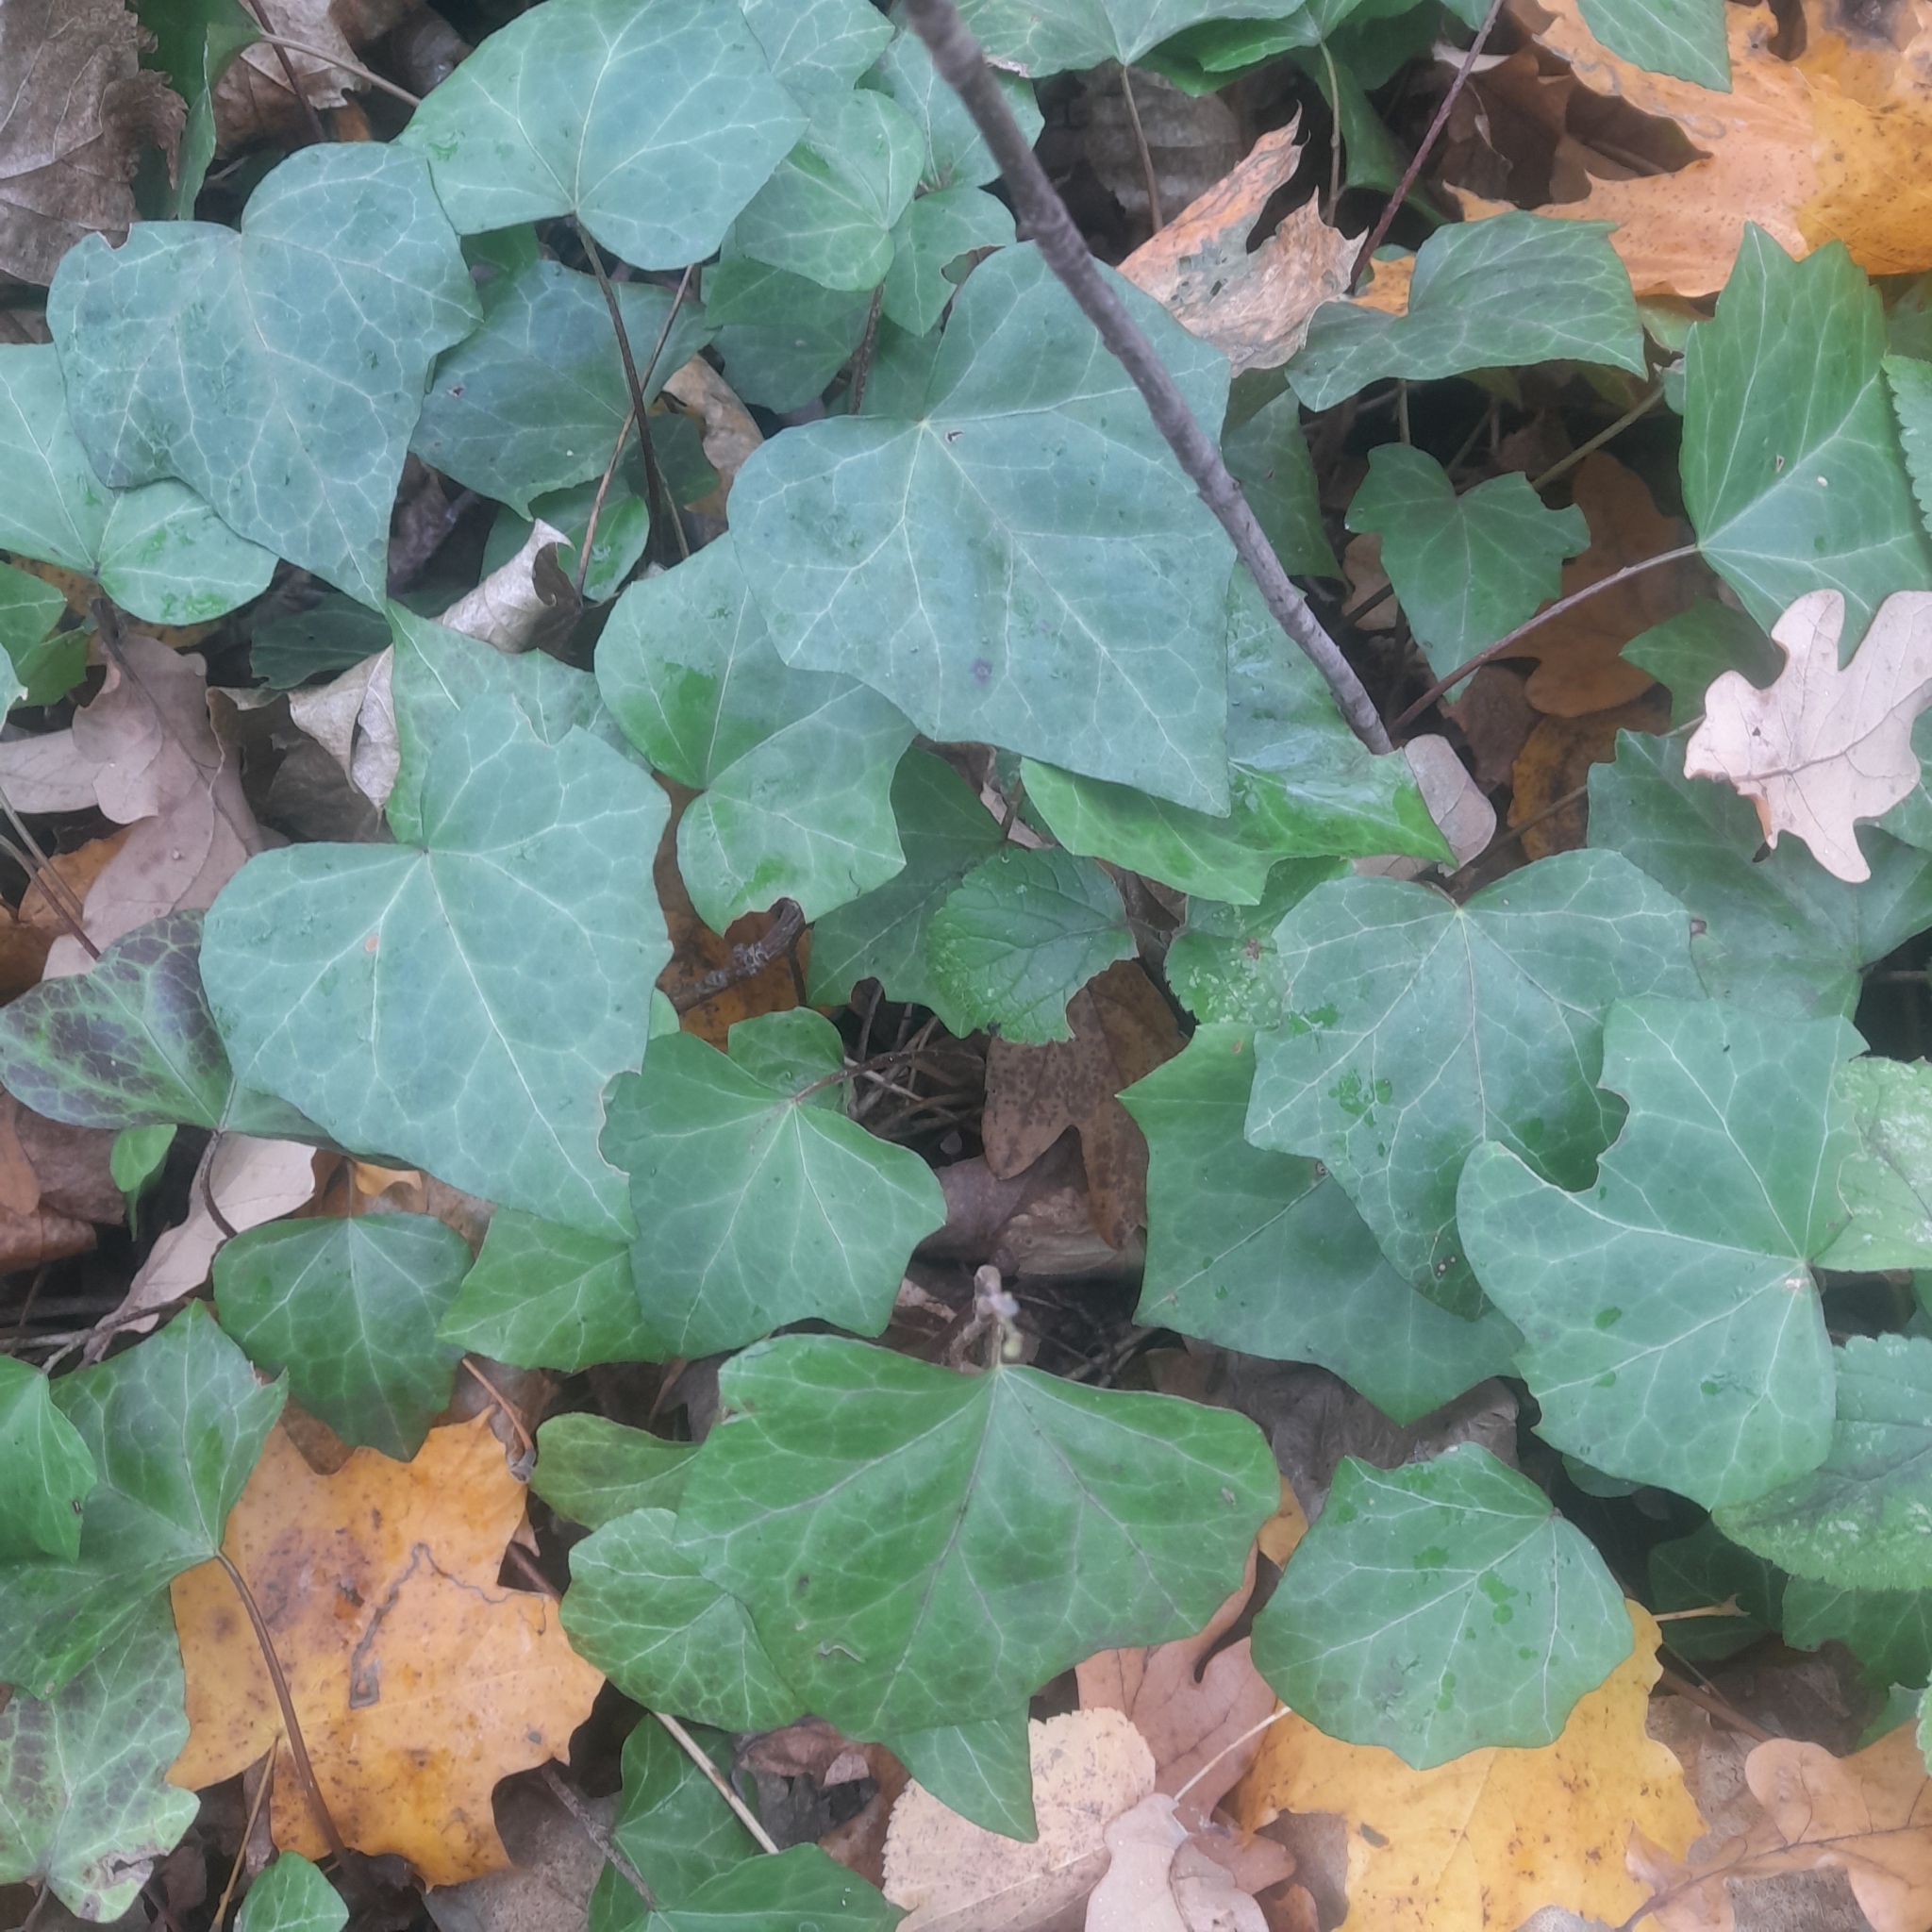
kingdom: Plantae
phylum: Tracheophyta
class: Magnoliopsida
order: Apiales
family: Araliaceae
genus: Hedera
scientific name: Hedera helix
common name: Ivy
